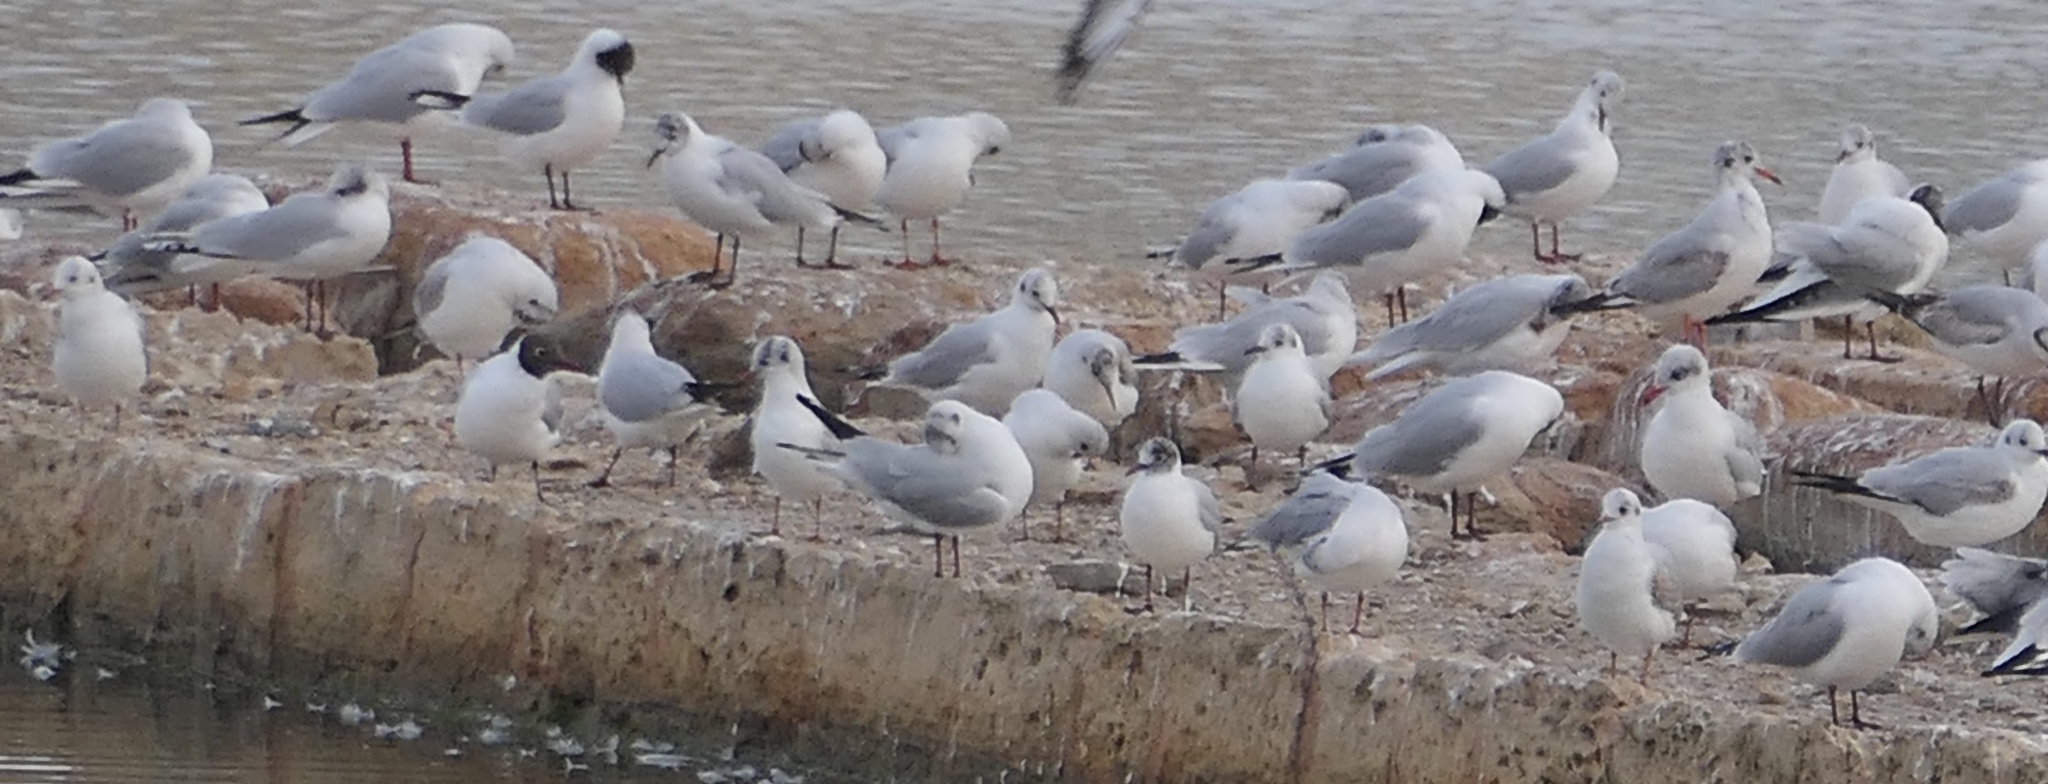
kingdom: Animalia
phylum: Chordata
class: Aves
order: Charadriiformes
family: Laridae
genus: Chroicocephalus
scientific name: Chroicocephalus ridibundus
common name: Black-headed gull
